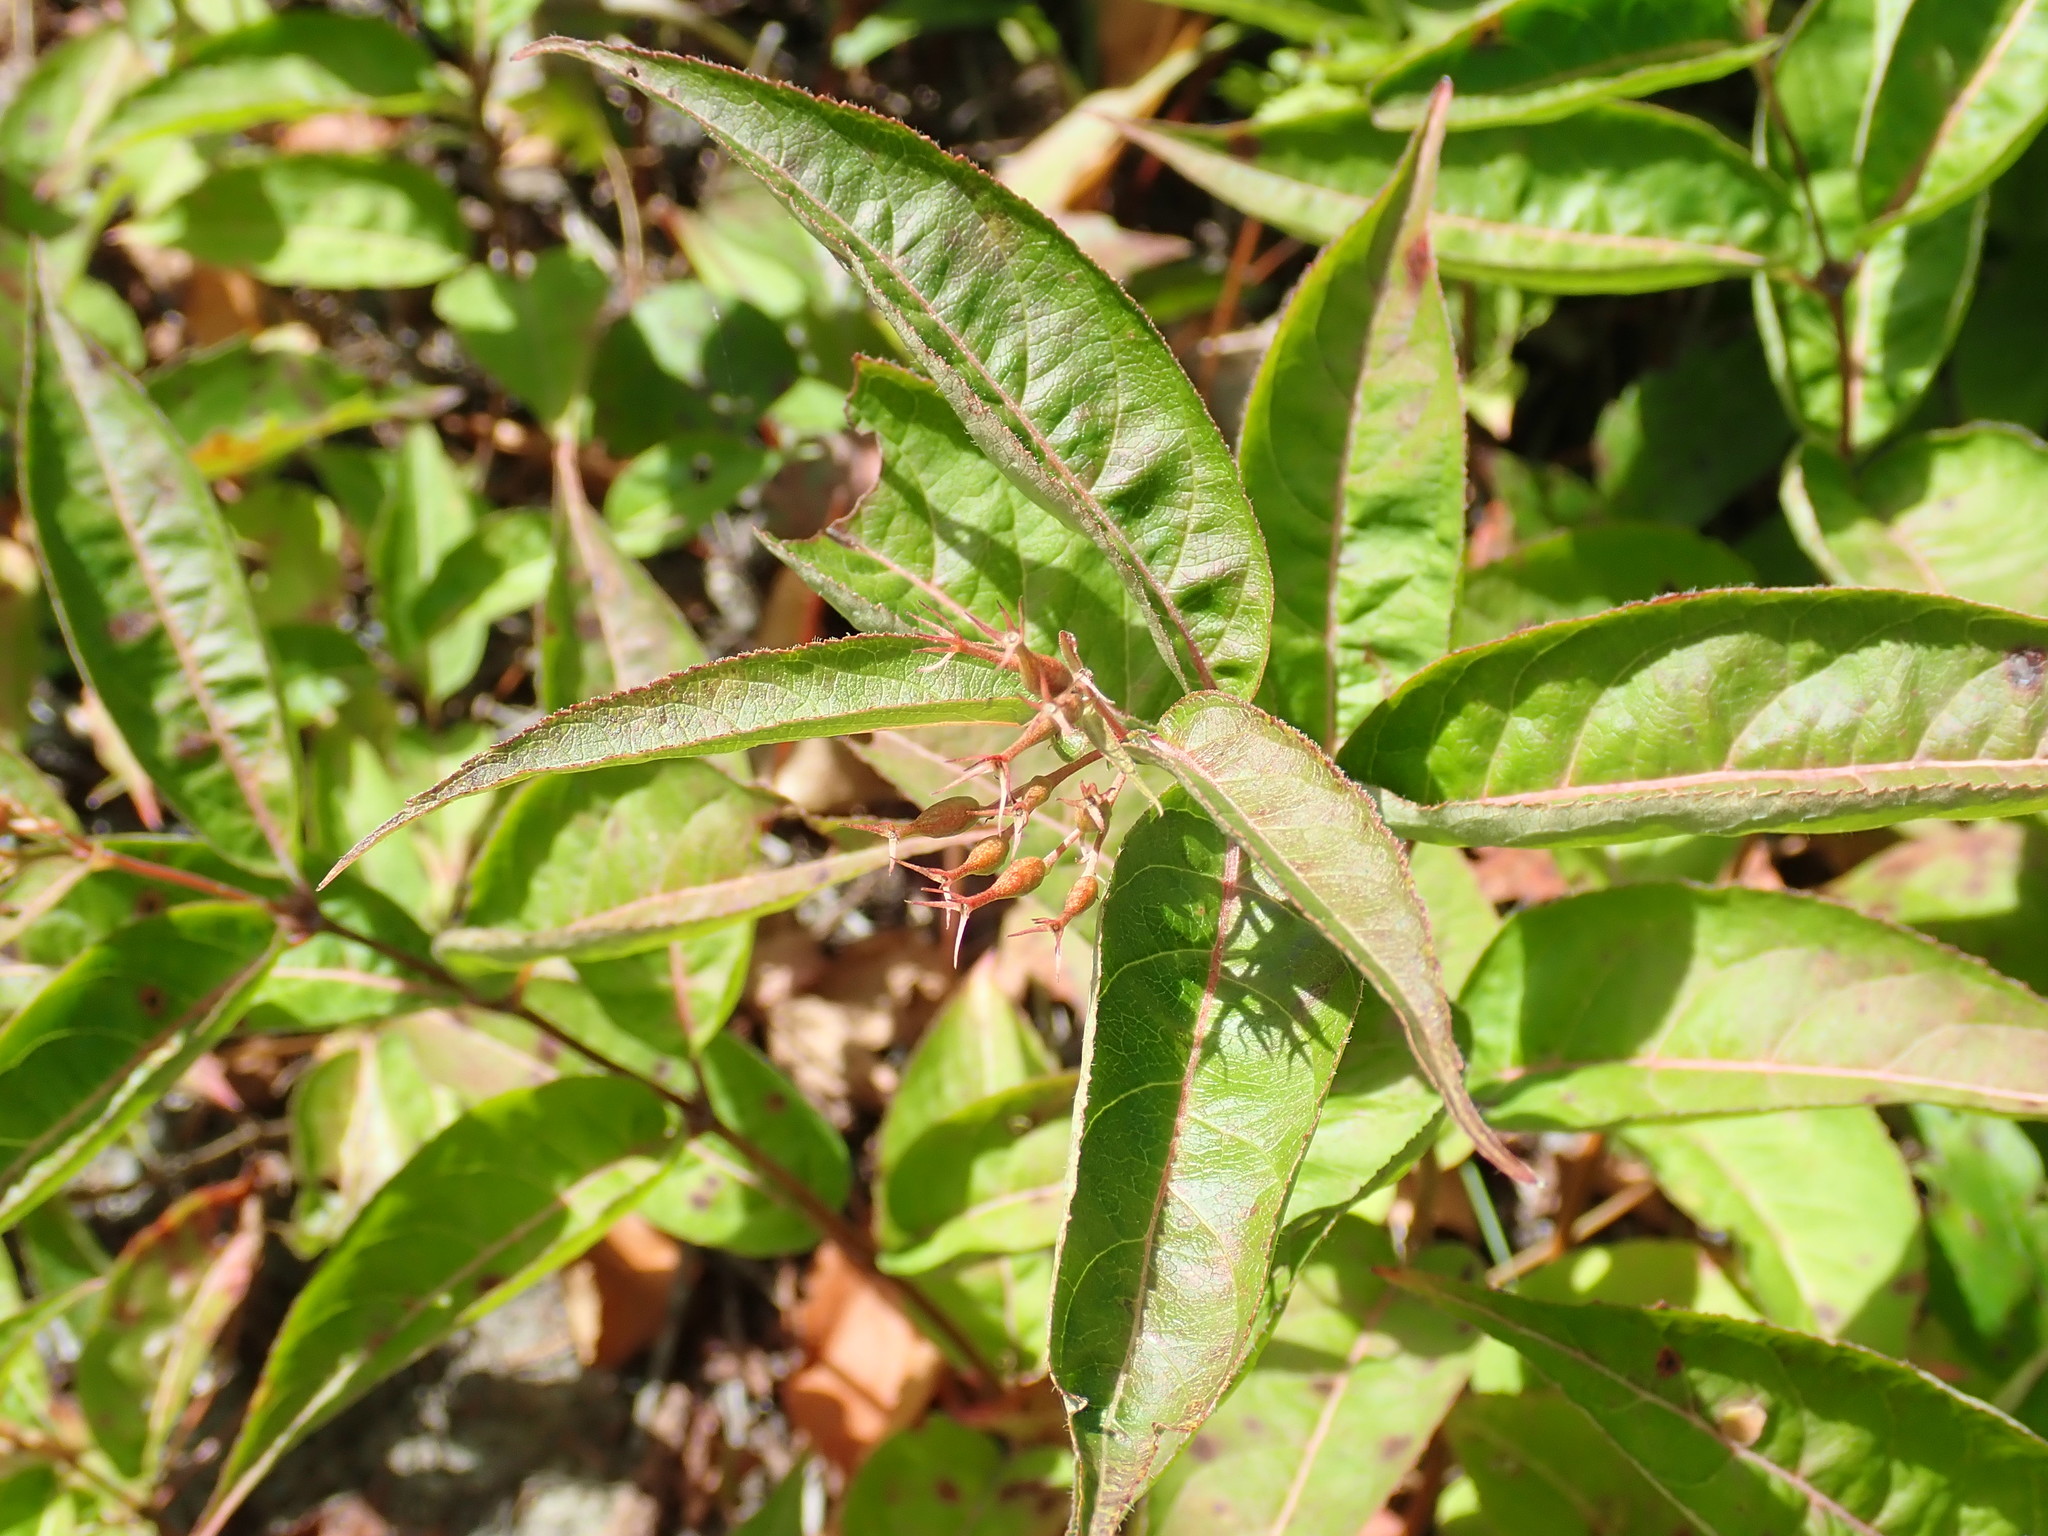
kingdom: Plantae
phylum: Tracheophyta
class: Magnoliopsida
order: Dipsacales
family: Caprifoliaceae
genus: Diervilla
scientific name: Diervilla lonicera
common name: Bush-honeysuckle
